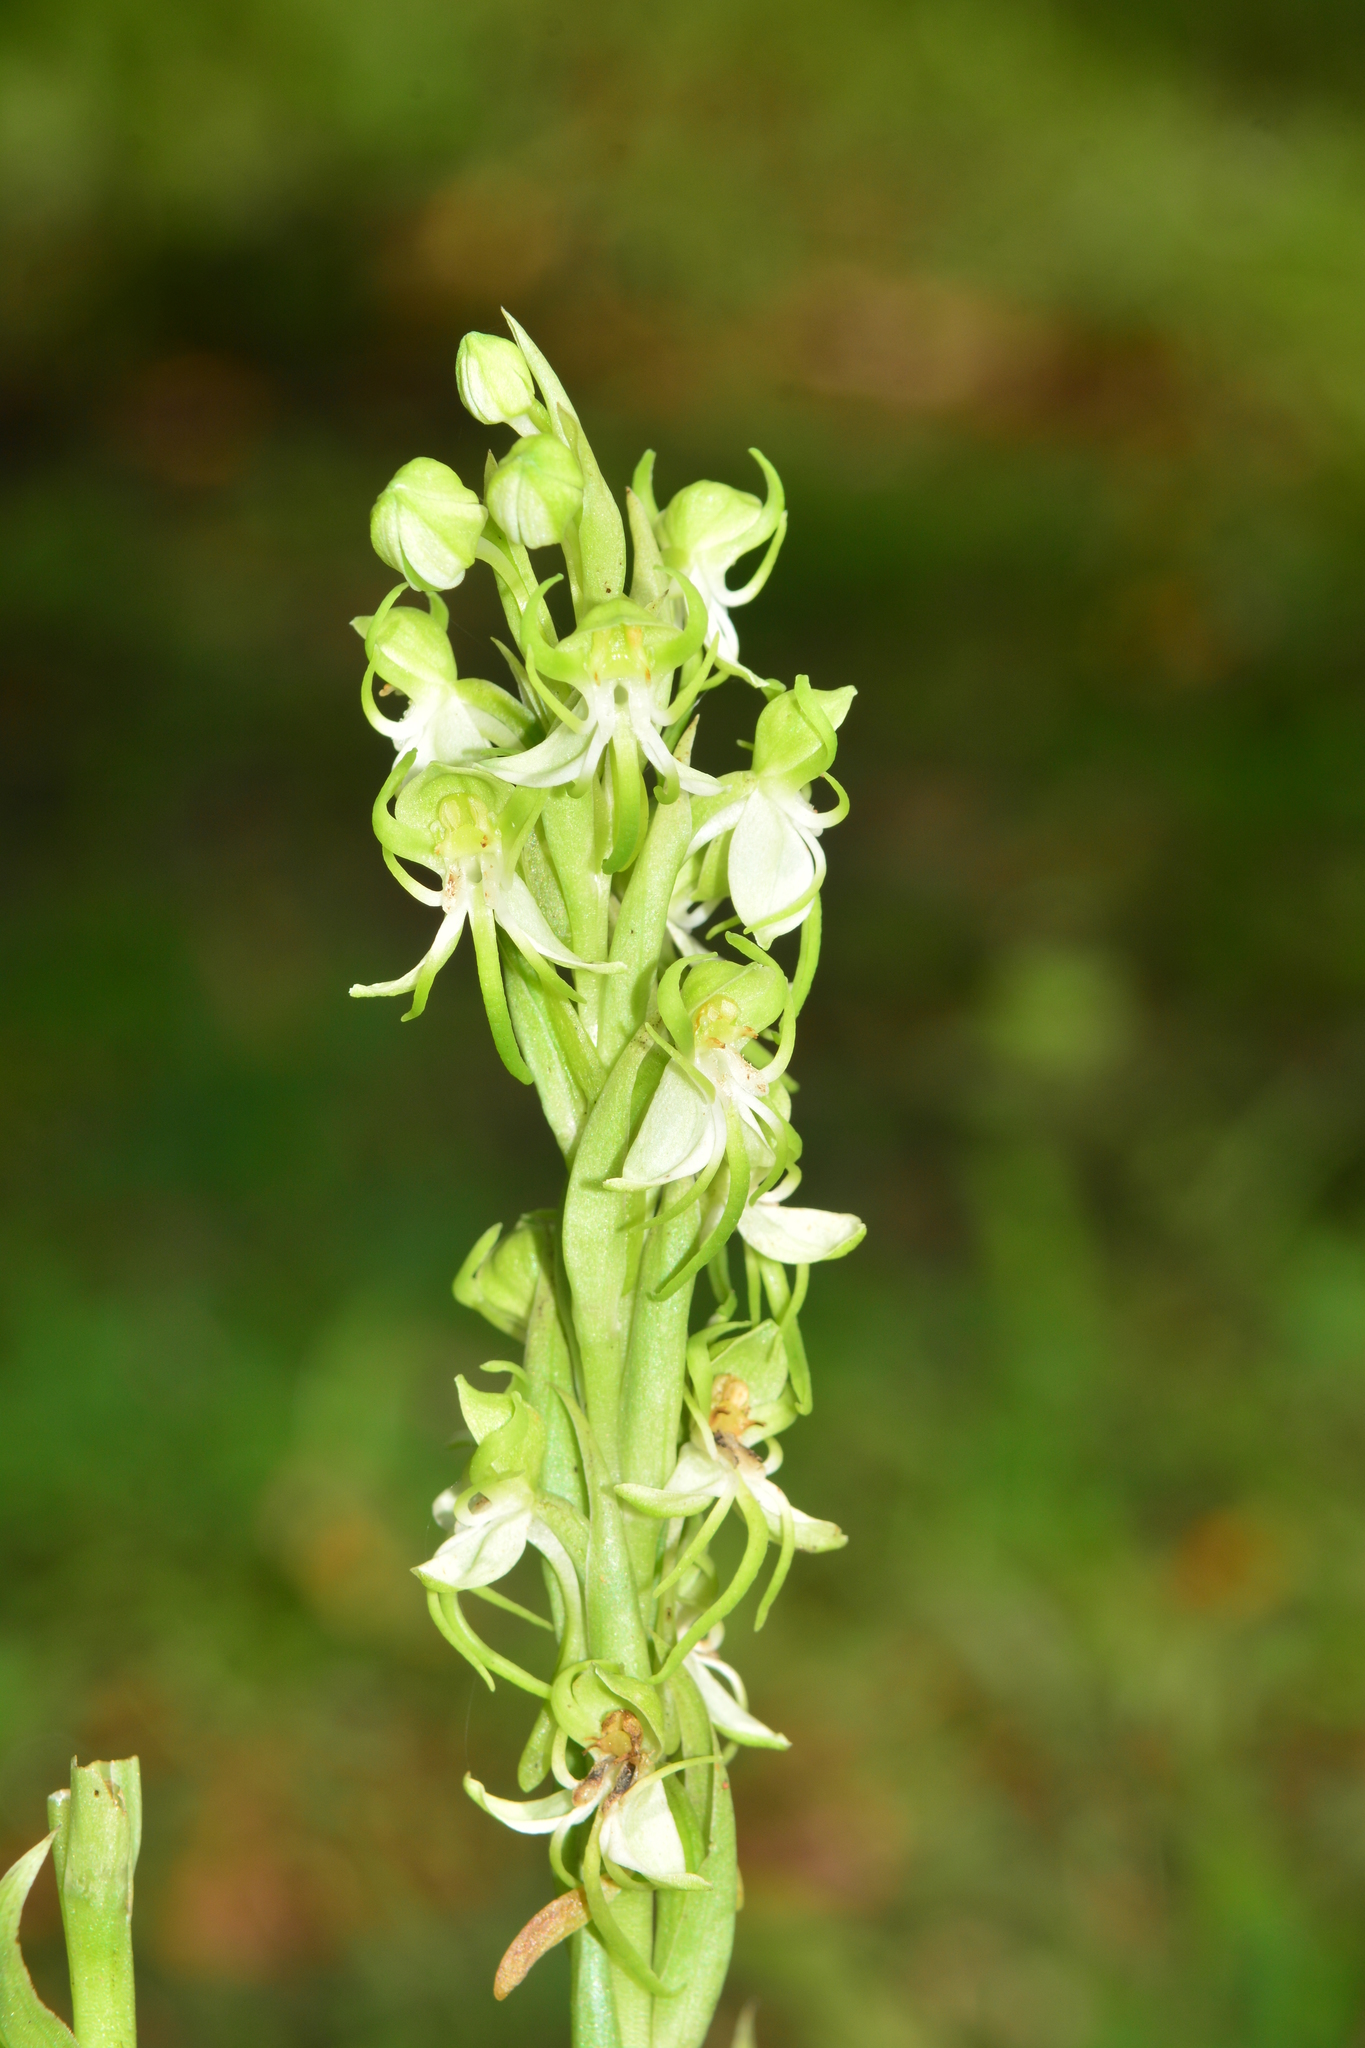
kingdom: Plantae
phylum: Tracheophyta
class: Liliopsida
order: Asparagales
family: Orchidaceae
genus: Habenaria
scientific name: Habenaria gibsonii
